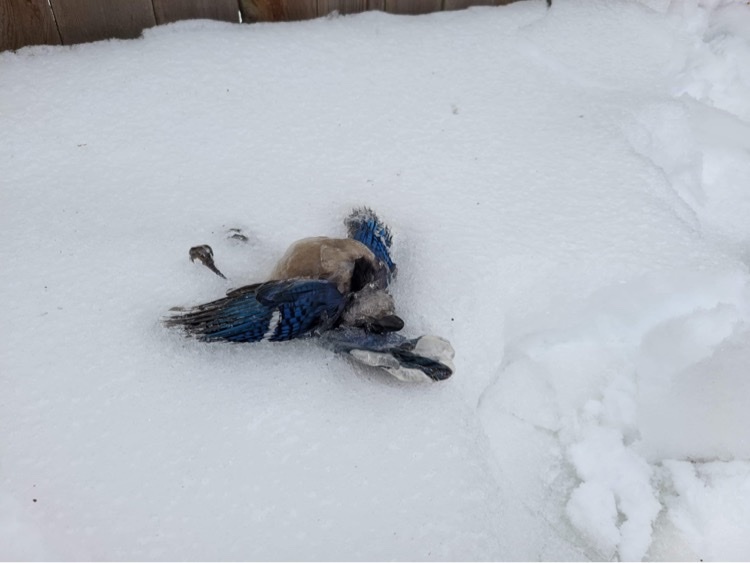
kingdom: Animalia
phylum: Chordata
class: Aves
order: Passeriformes
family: Corvidae
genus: Cyanocitta
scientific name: Cyanocitta cristata
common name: Blue jay
